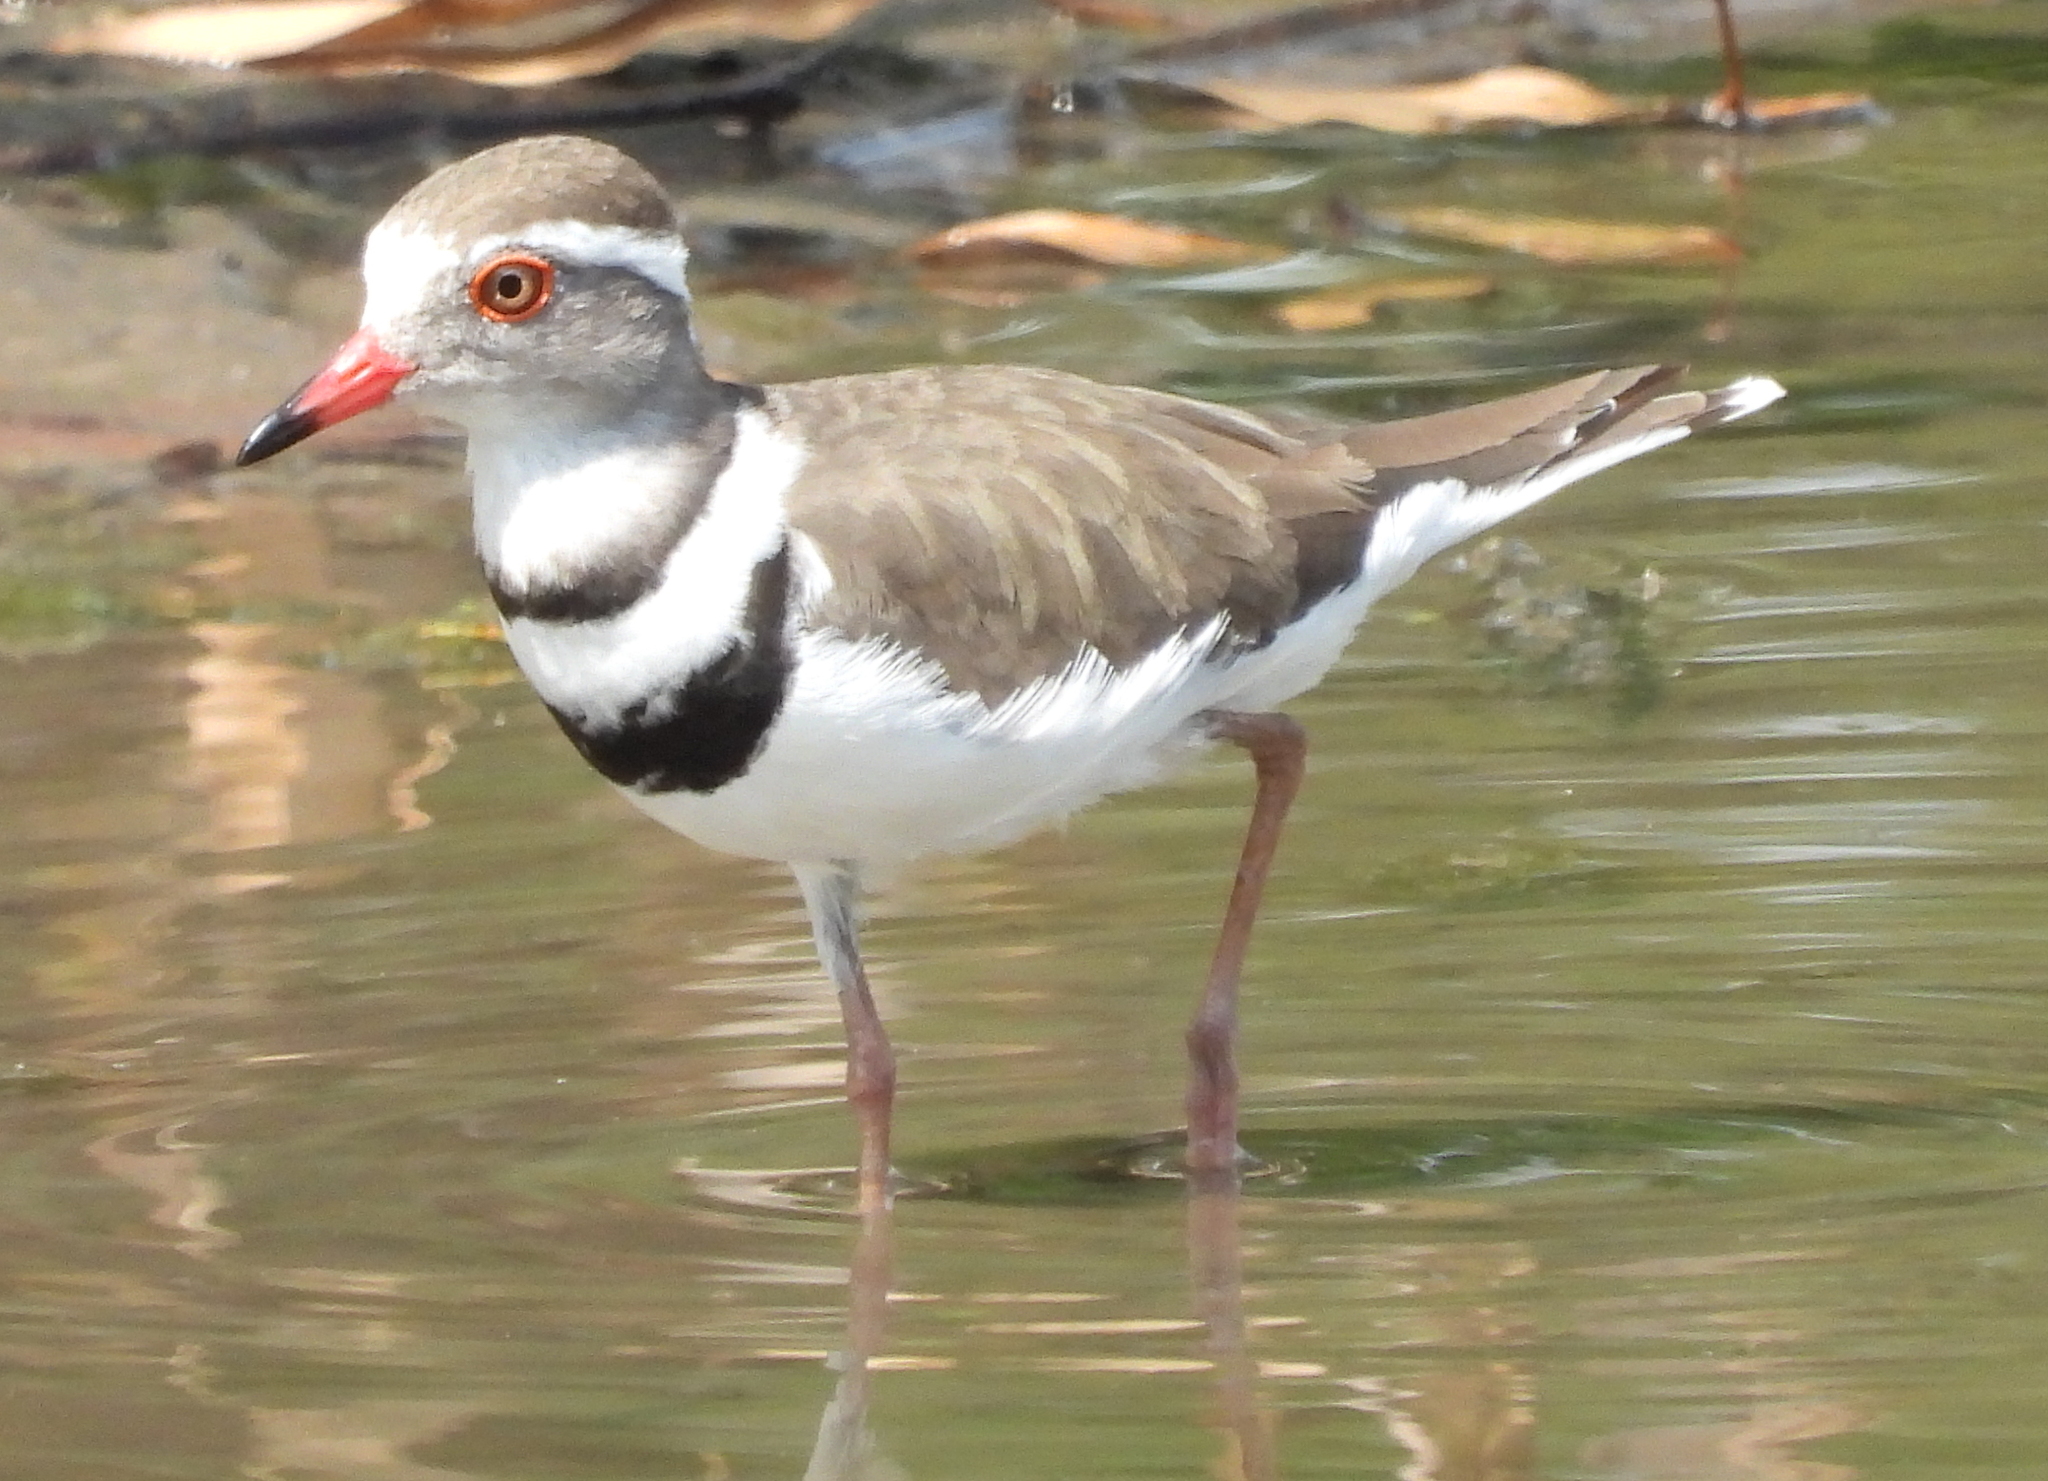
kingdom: Animalia
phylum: Chordata
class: Aves
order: Charadriiformes
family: Charadriidae
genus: Charadrius
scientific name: Charadrius tricollaris
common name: Three-banded plover
